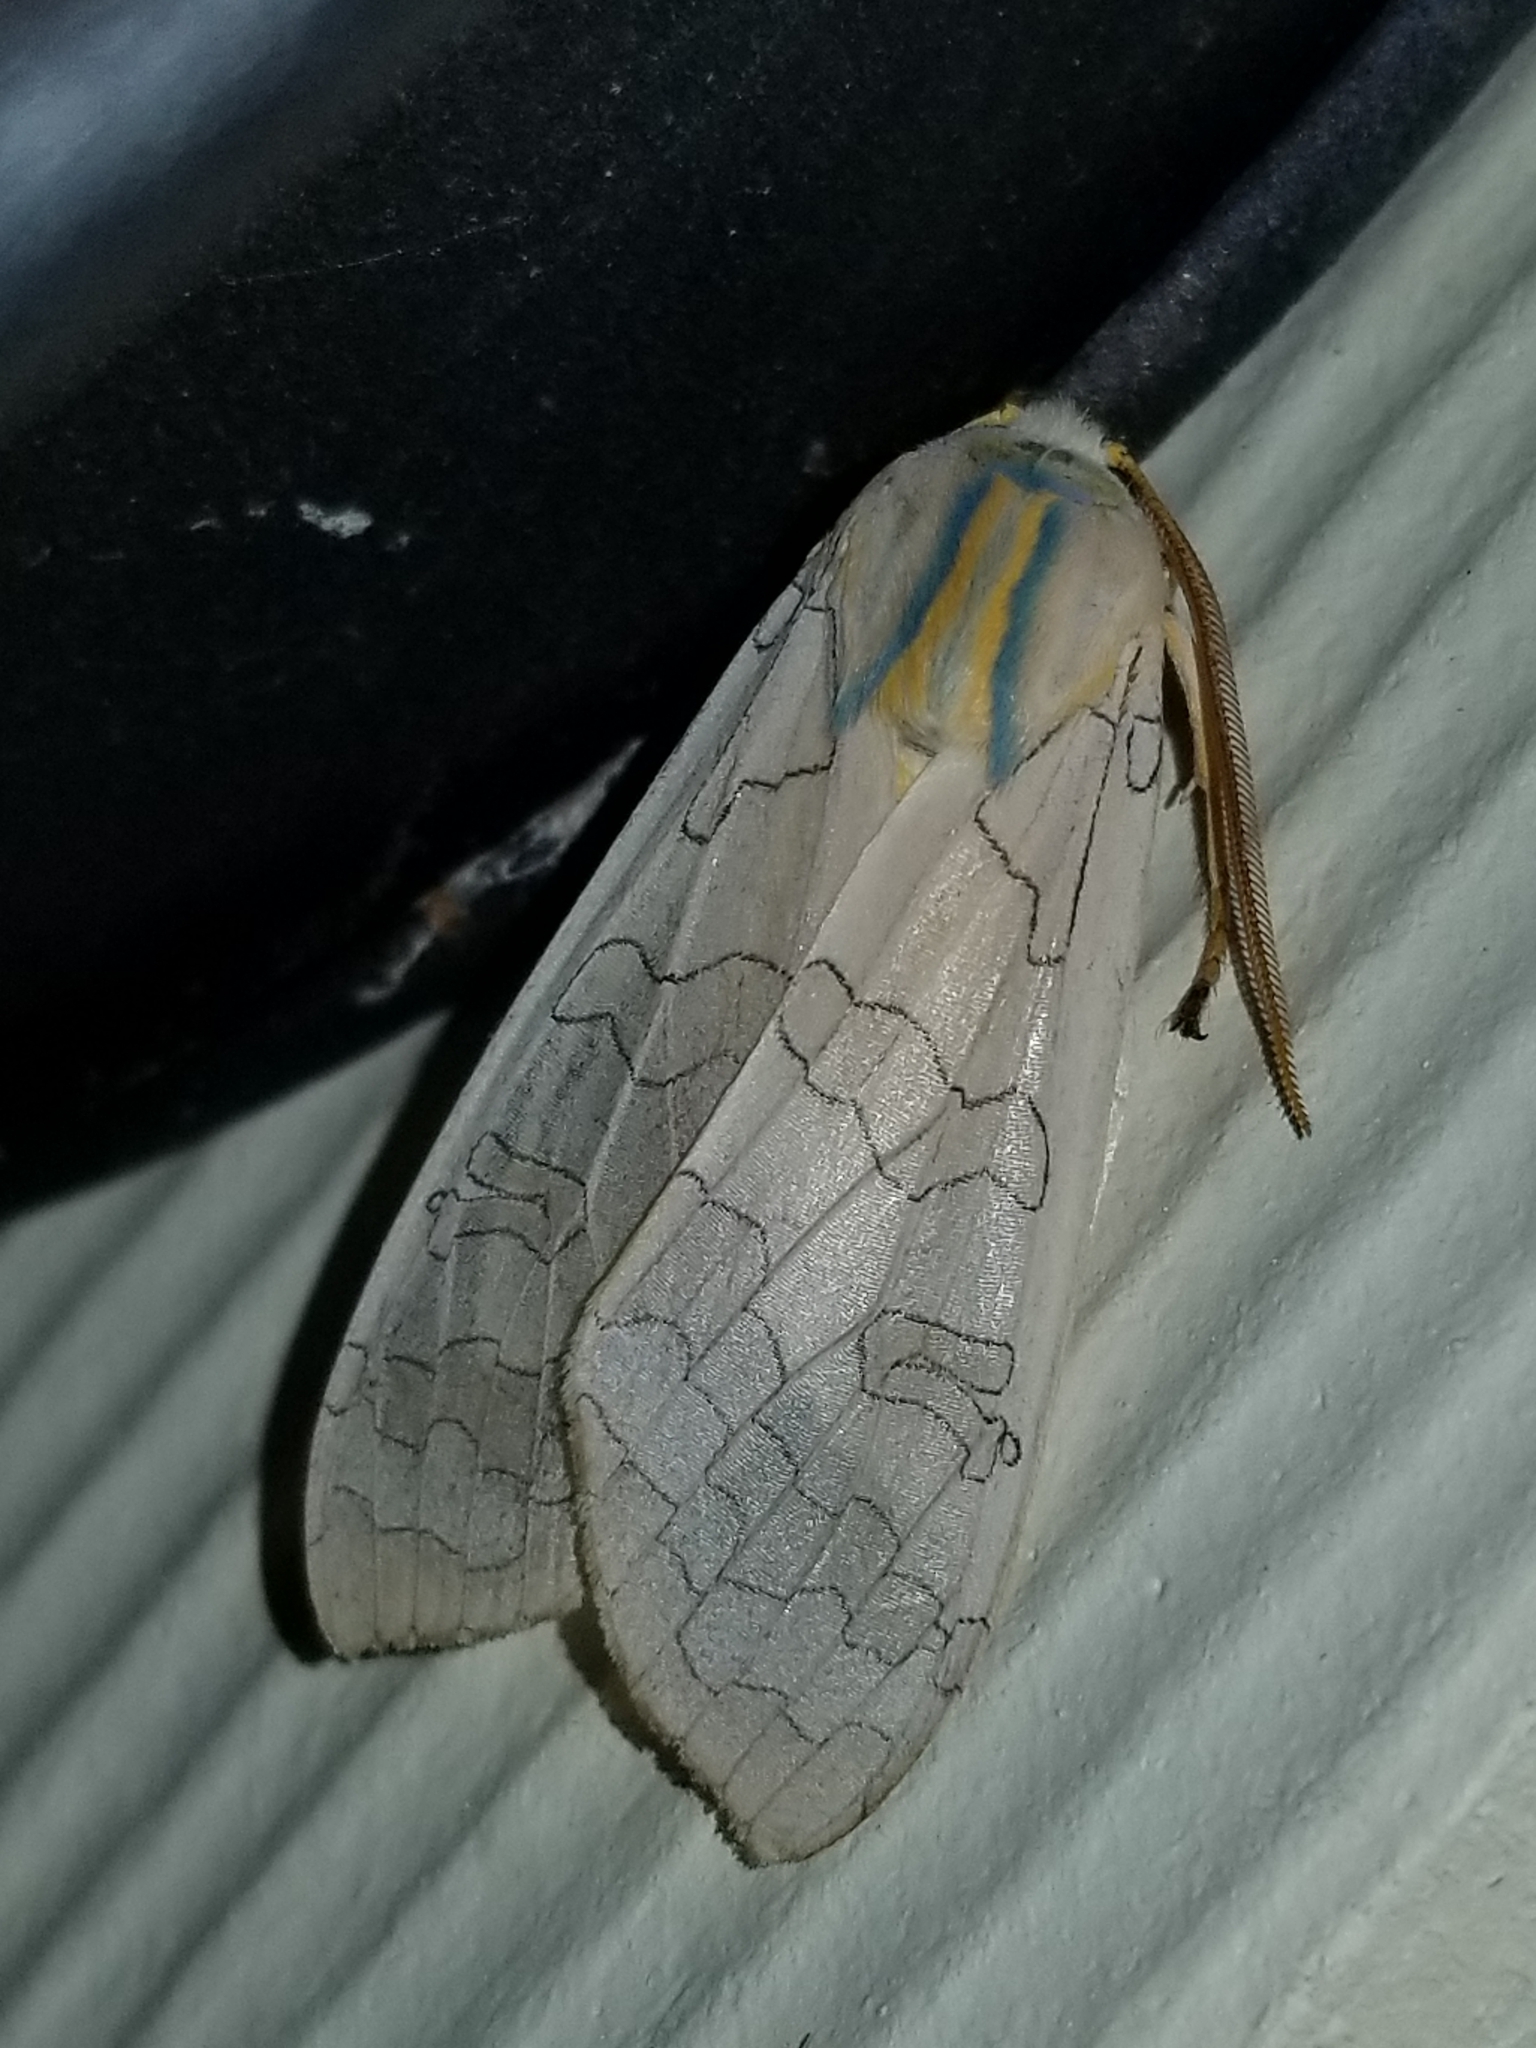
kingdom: Animalia
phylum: Arthropoda
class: Insecta
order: Lepidoptera
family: Erebidae
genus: Halysidota
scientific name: Halysidota
